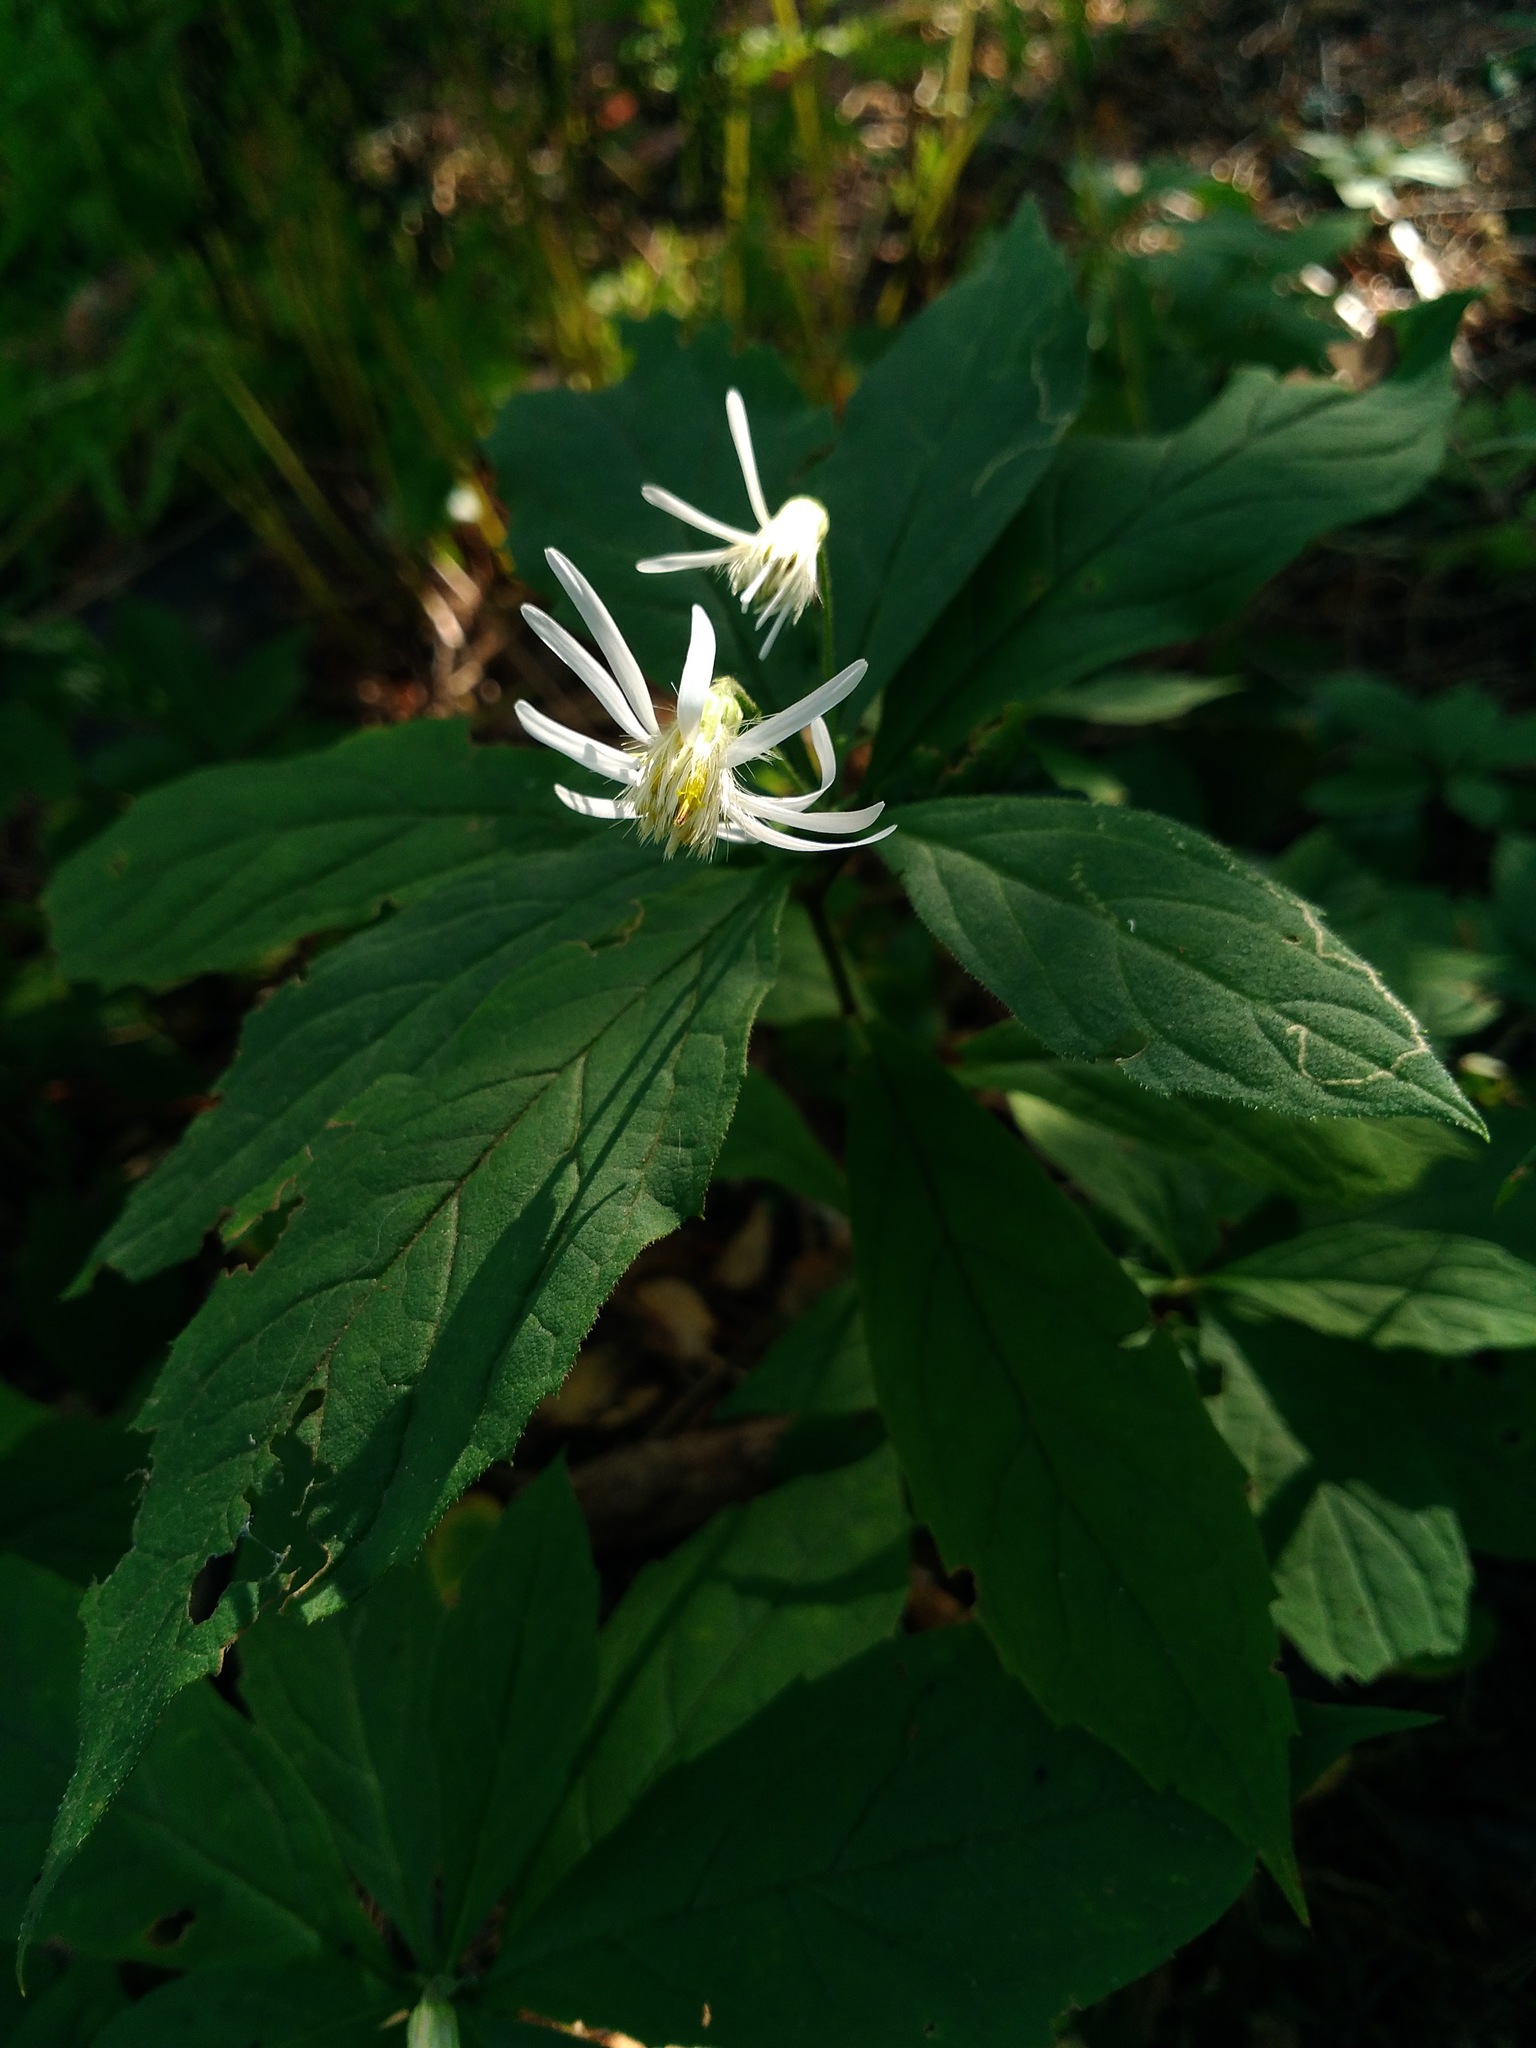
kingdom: Plantae
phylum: Tracheophyta
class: Magnoliopsida
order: Asterales
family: Asteraceae
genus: Oclemena
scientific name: Oclemena acuminata
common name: Mountain aster
